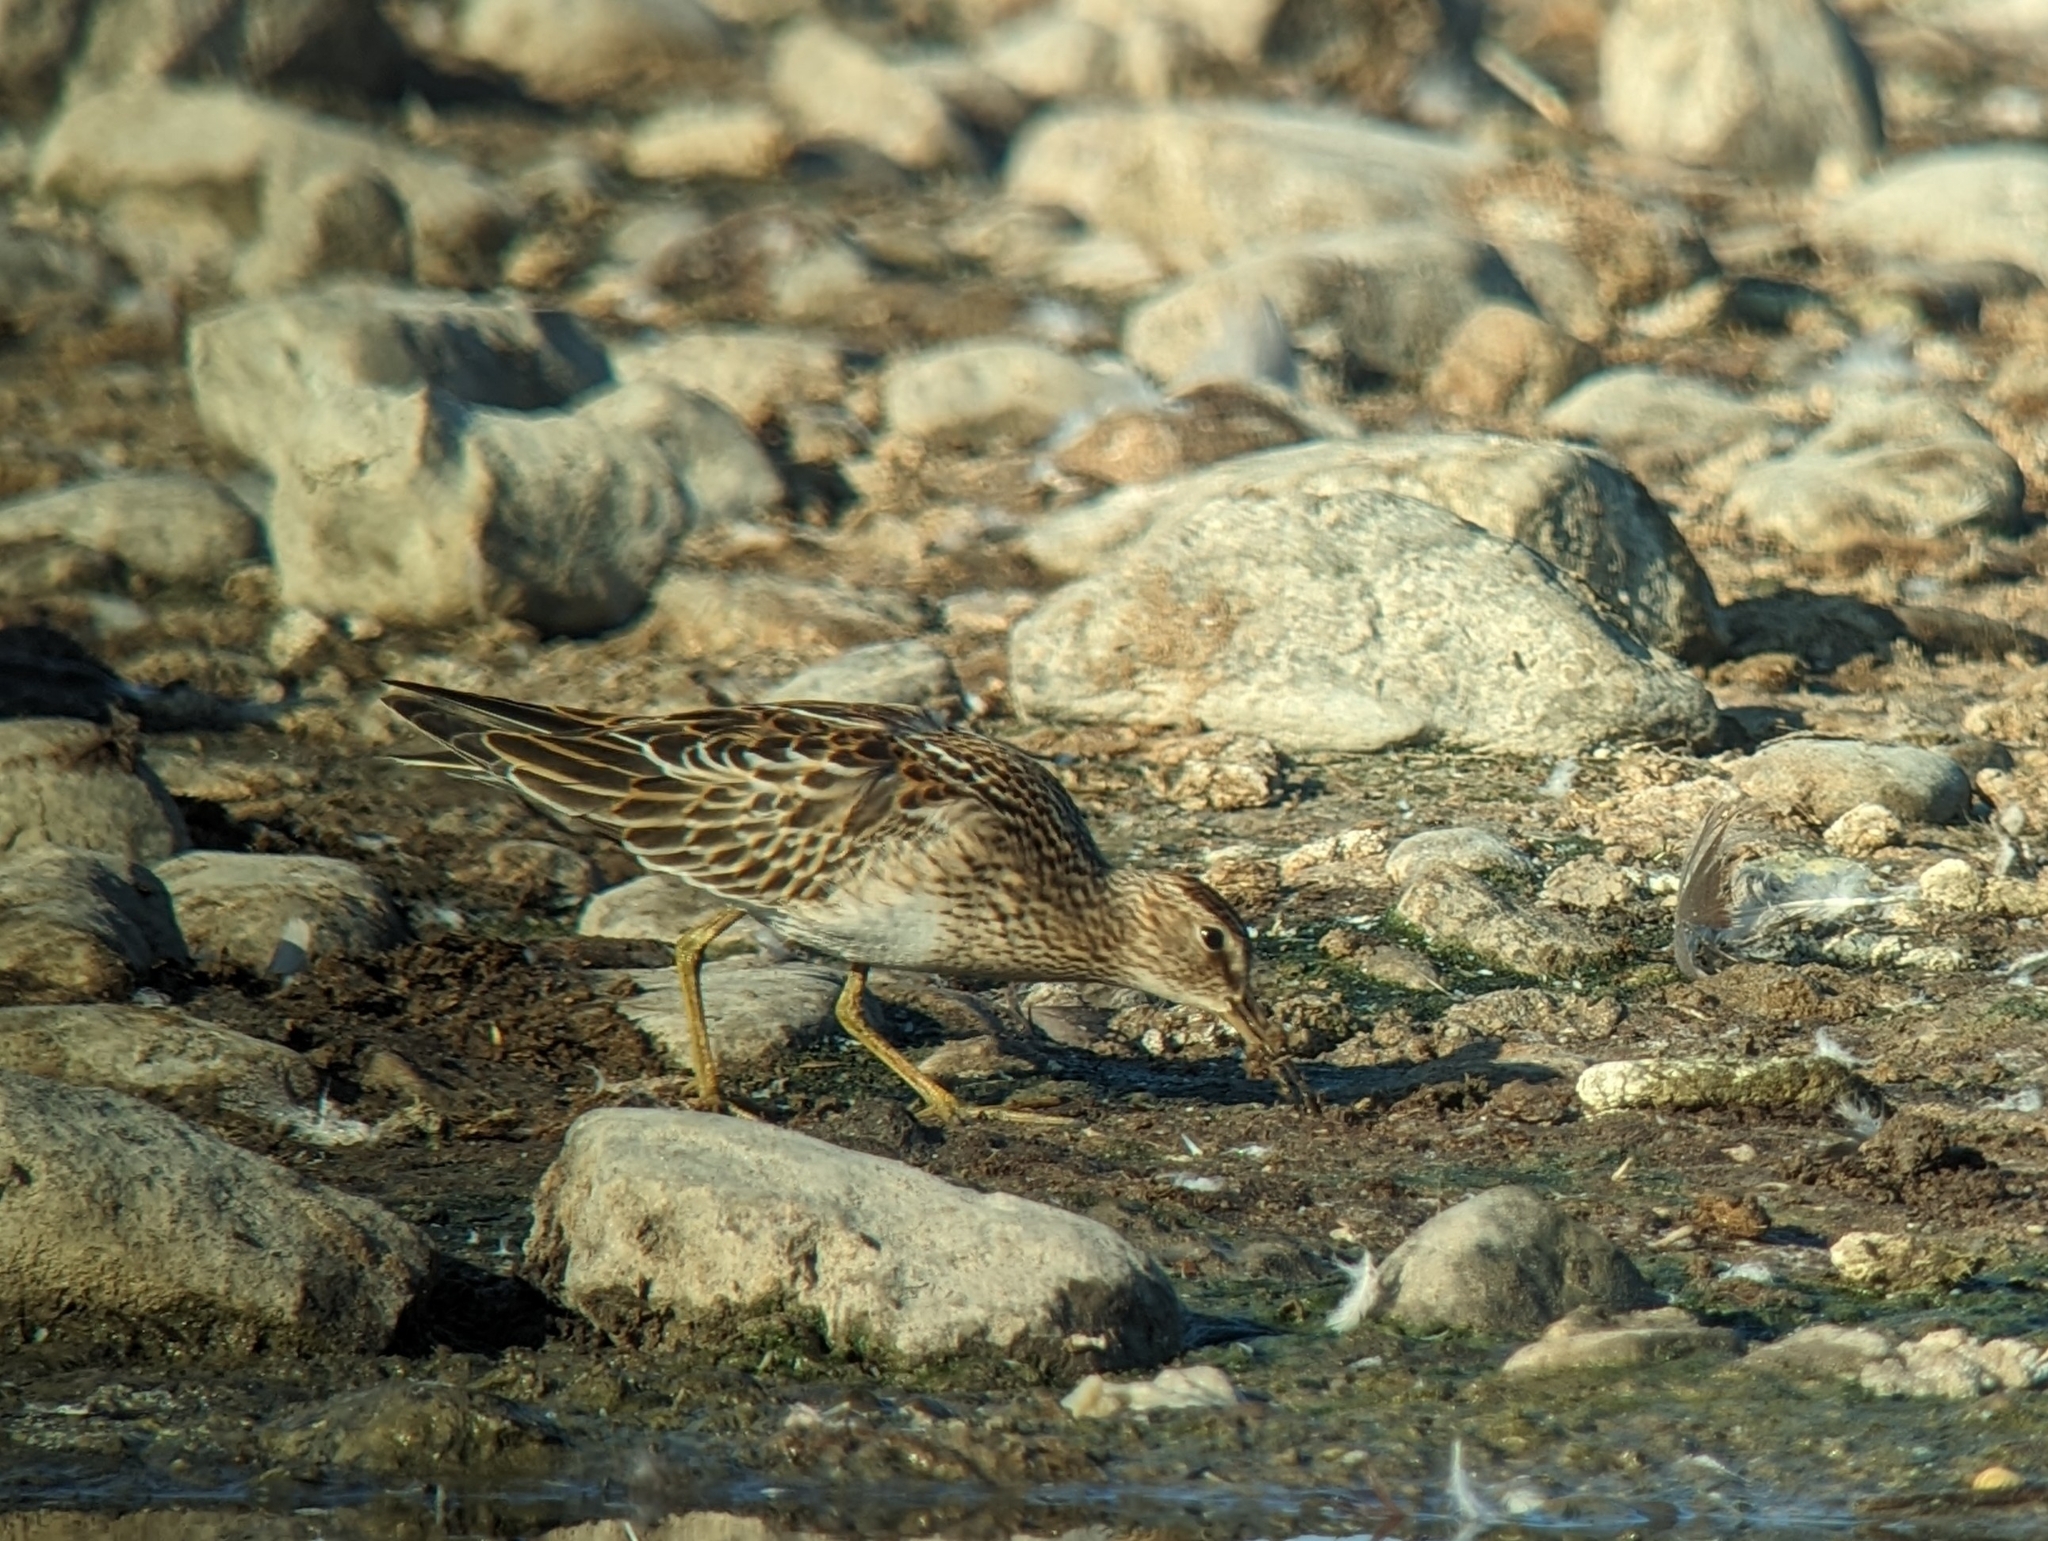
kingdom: Animalia
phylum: Chordata
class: Aves
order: Charadriiformes
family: Scolopacidae
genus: Calidris
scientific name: Calidris melanotos
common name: Pectoral sandpiper
